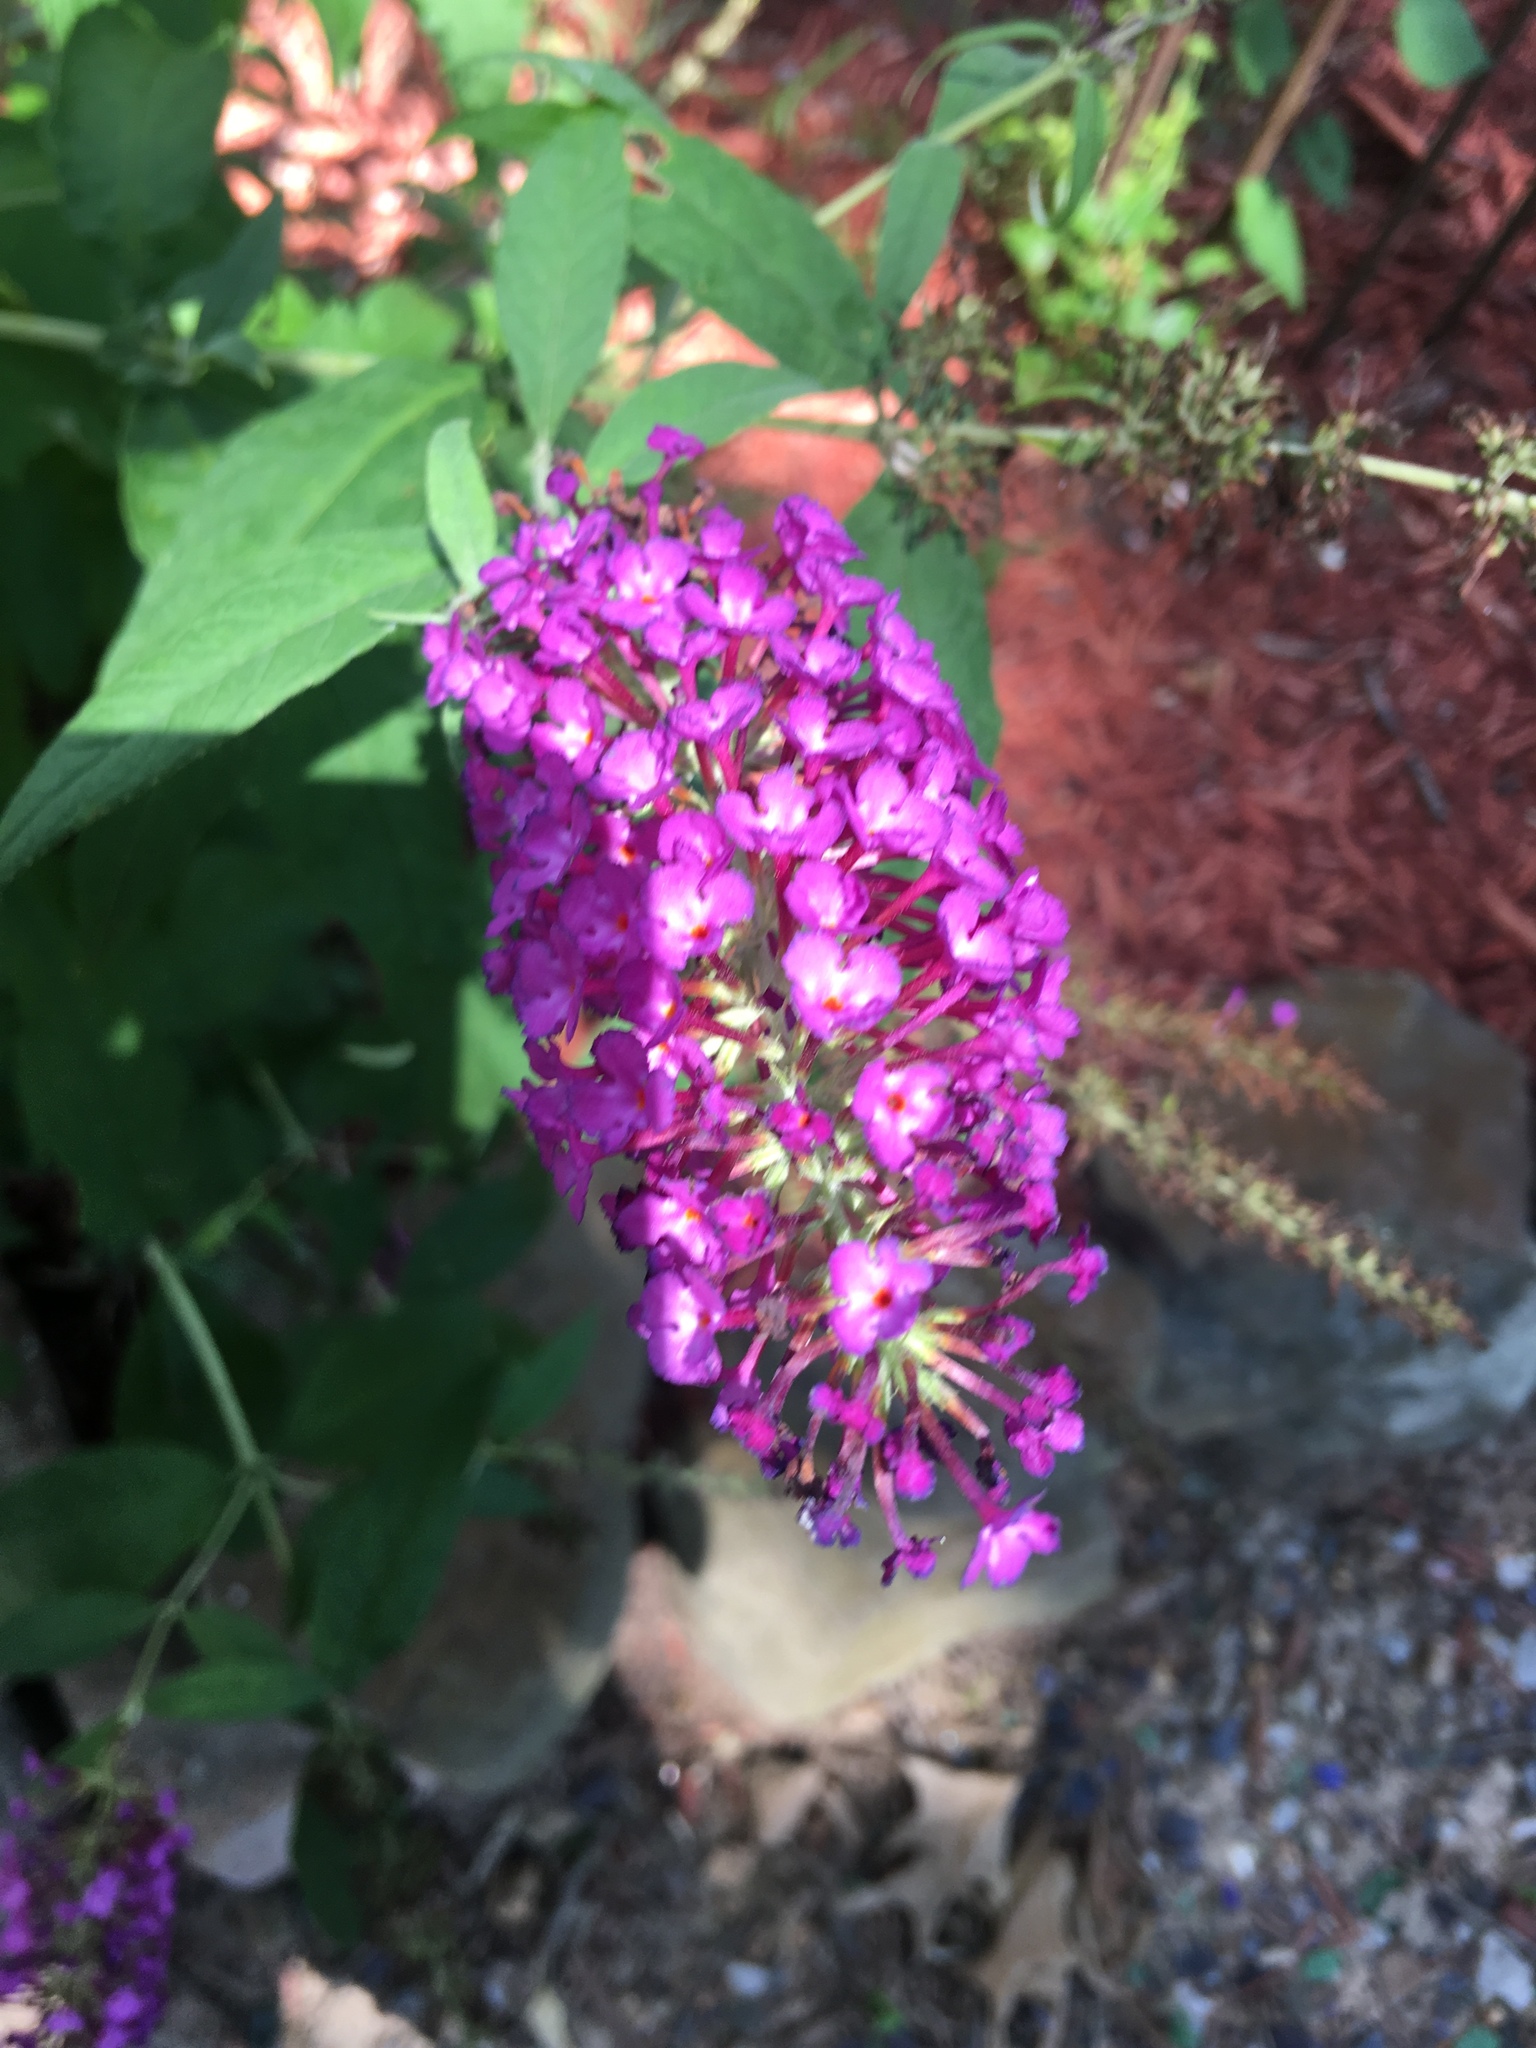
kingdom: Plantae
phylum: Tracheophyta
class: Magnoliopsida
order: Lamiales
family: Scrophulariaceae
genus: Buddleja
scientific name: Buddleja davidii
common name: Butterfly-bush
